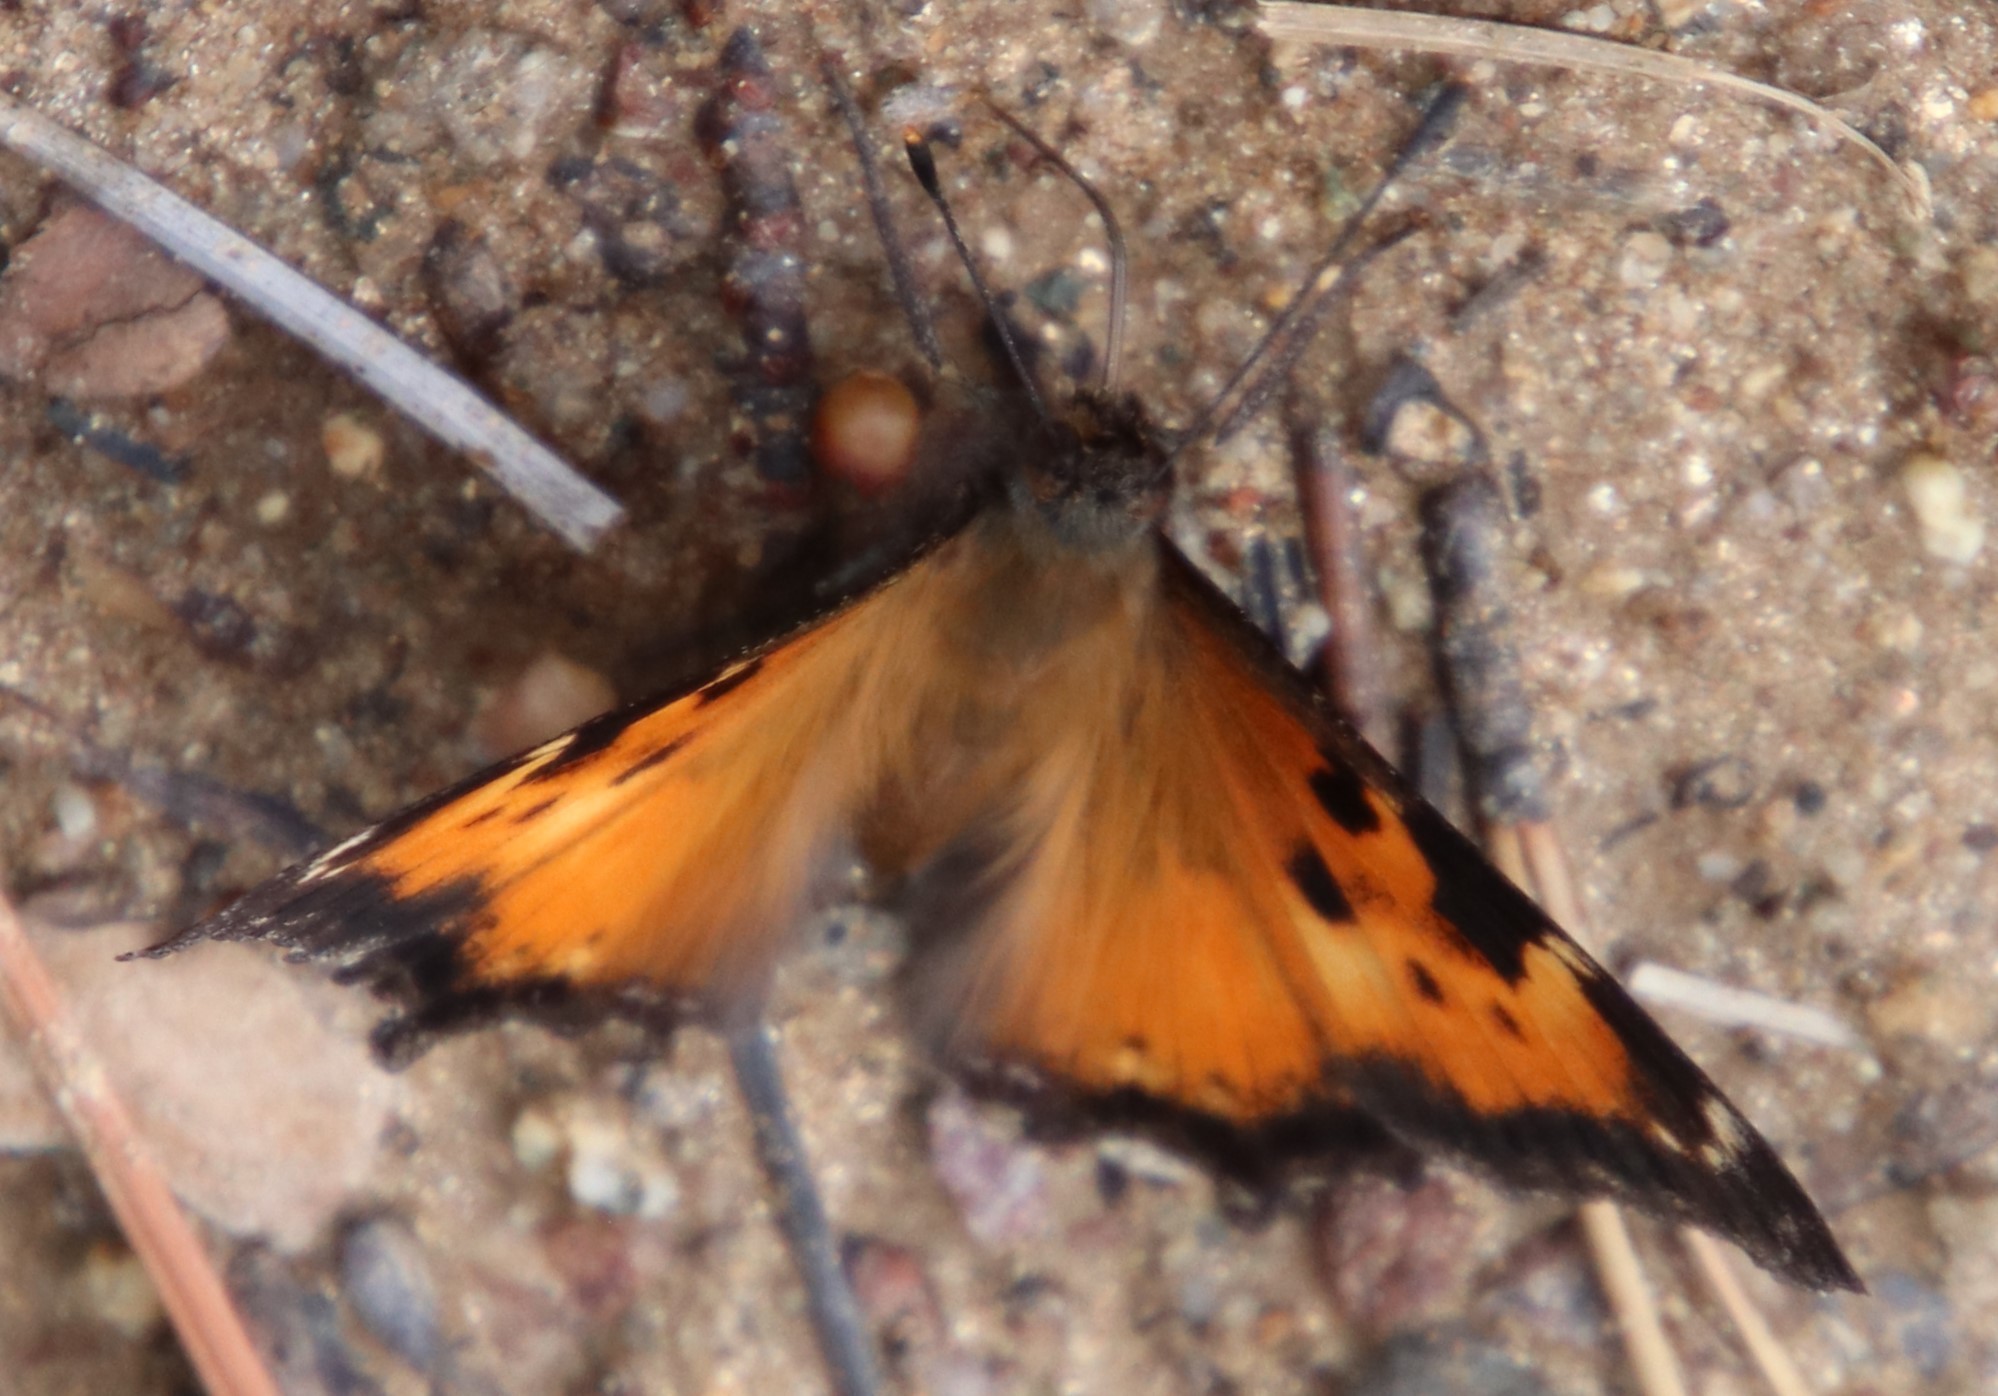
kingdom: Animalia
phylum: Arthropoda
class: Insecta
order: Lepidoptera
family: Nymphalidae
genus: Nymphalis
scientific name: Nymphalis californica
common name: California tortoiseshell
